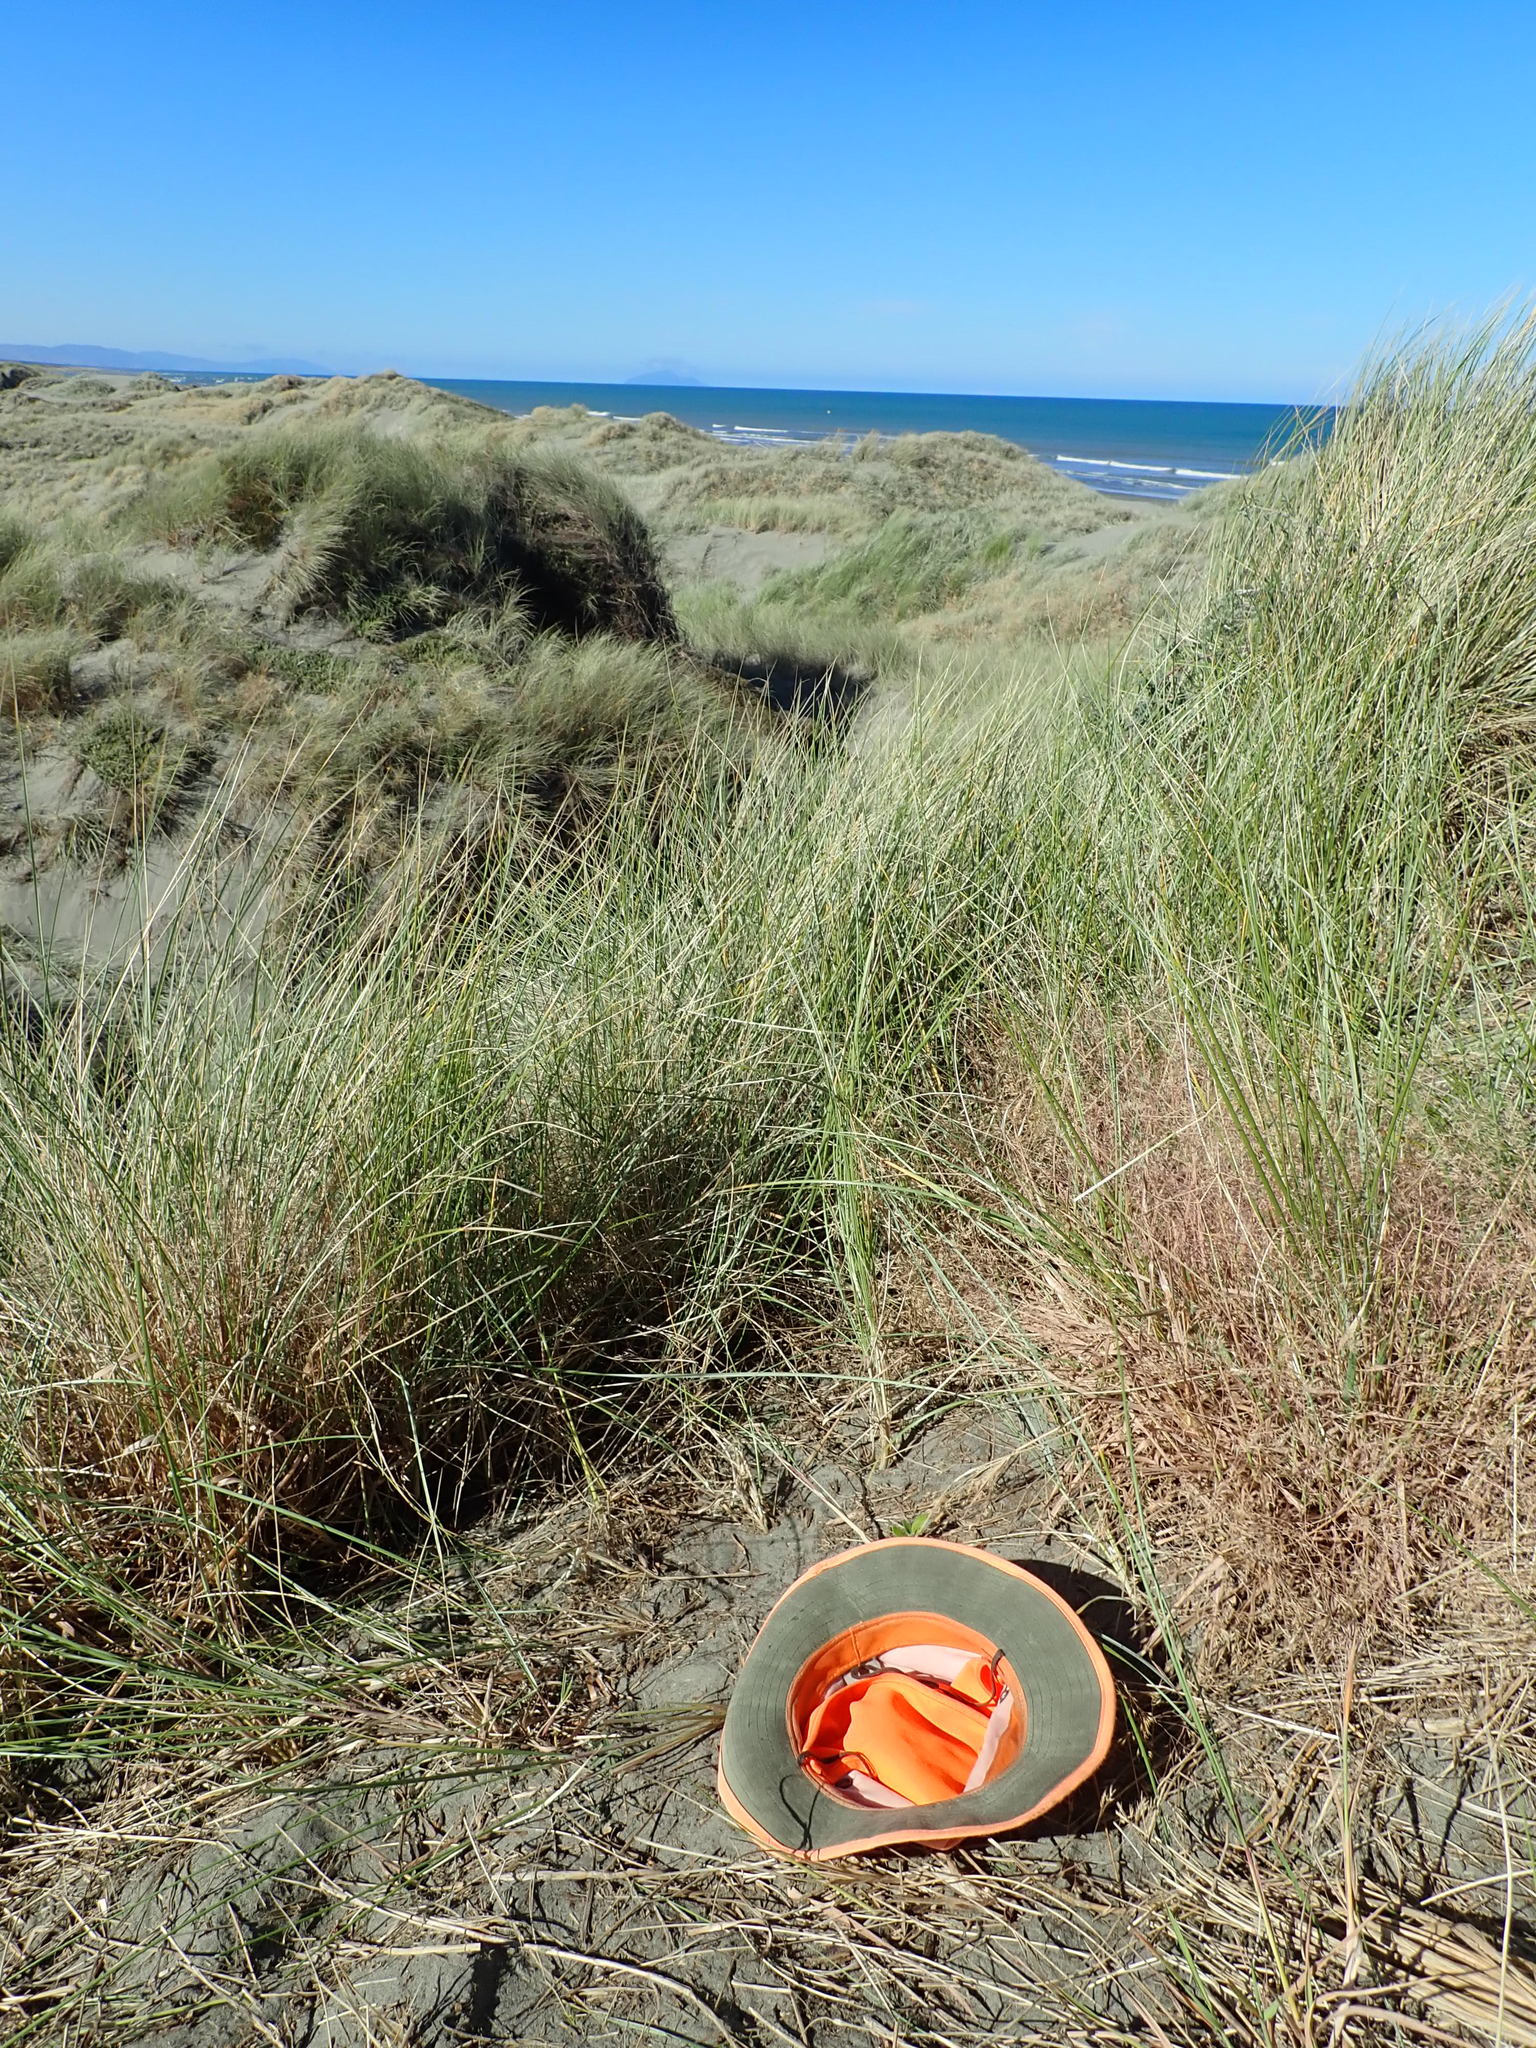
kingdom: Plantae
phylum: Tracheophyta
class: Magnoliopsida
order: Caryophyllales
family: Aizoaceae
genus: Tetragonia
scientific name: Tetragonia implexicoma
